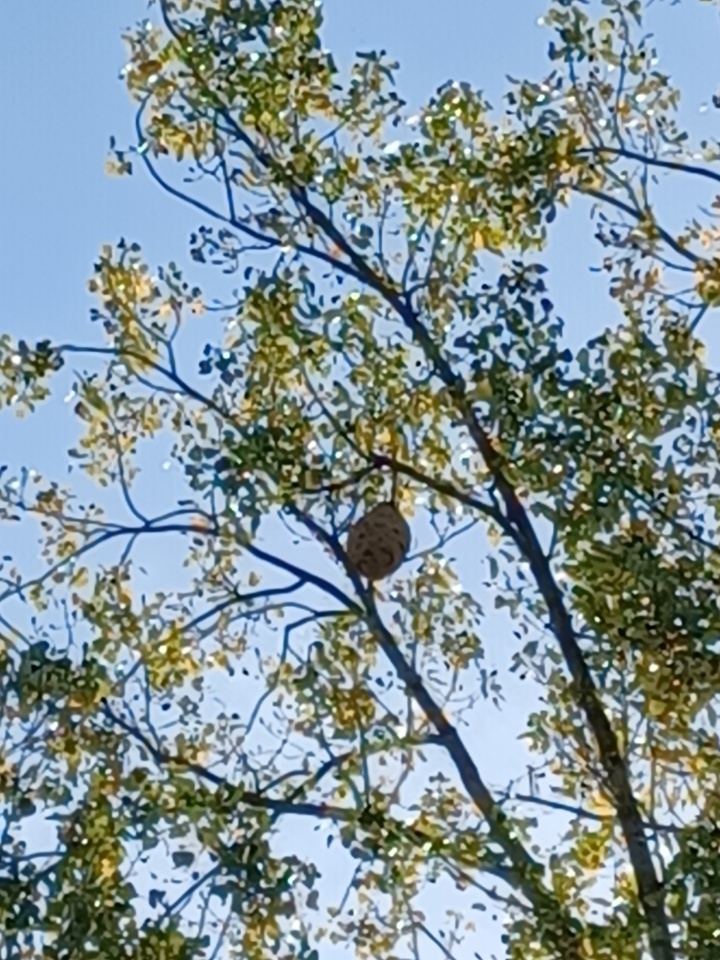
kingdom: Animalia
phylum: Arthropoda
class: Insecta
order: Hymenoptera
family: Vespidae
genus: Vespa
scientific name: Vespa velutina
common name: Asian hornet
